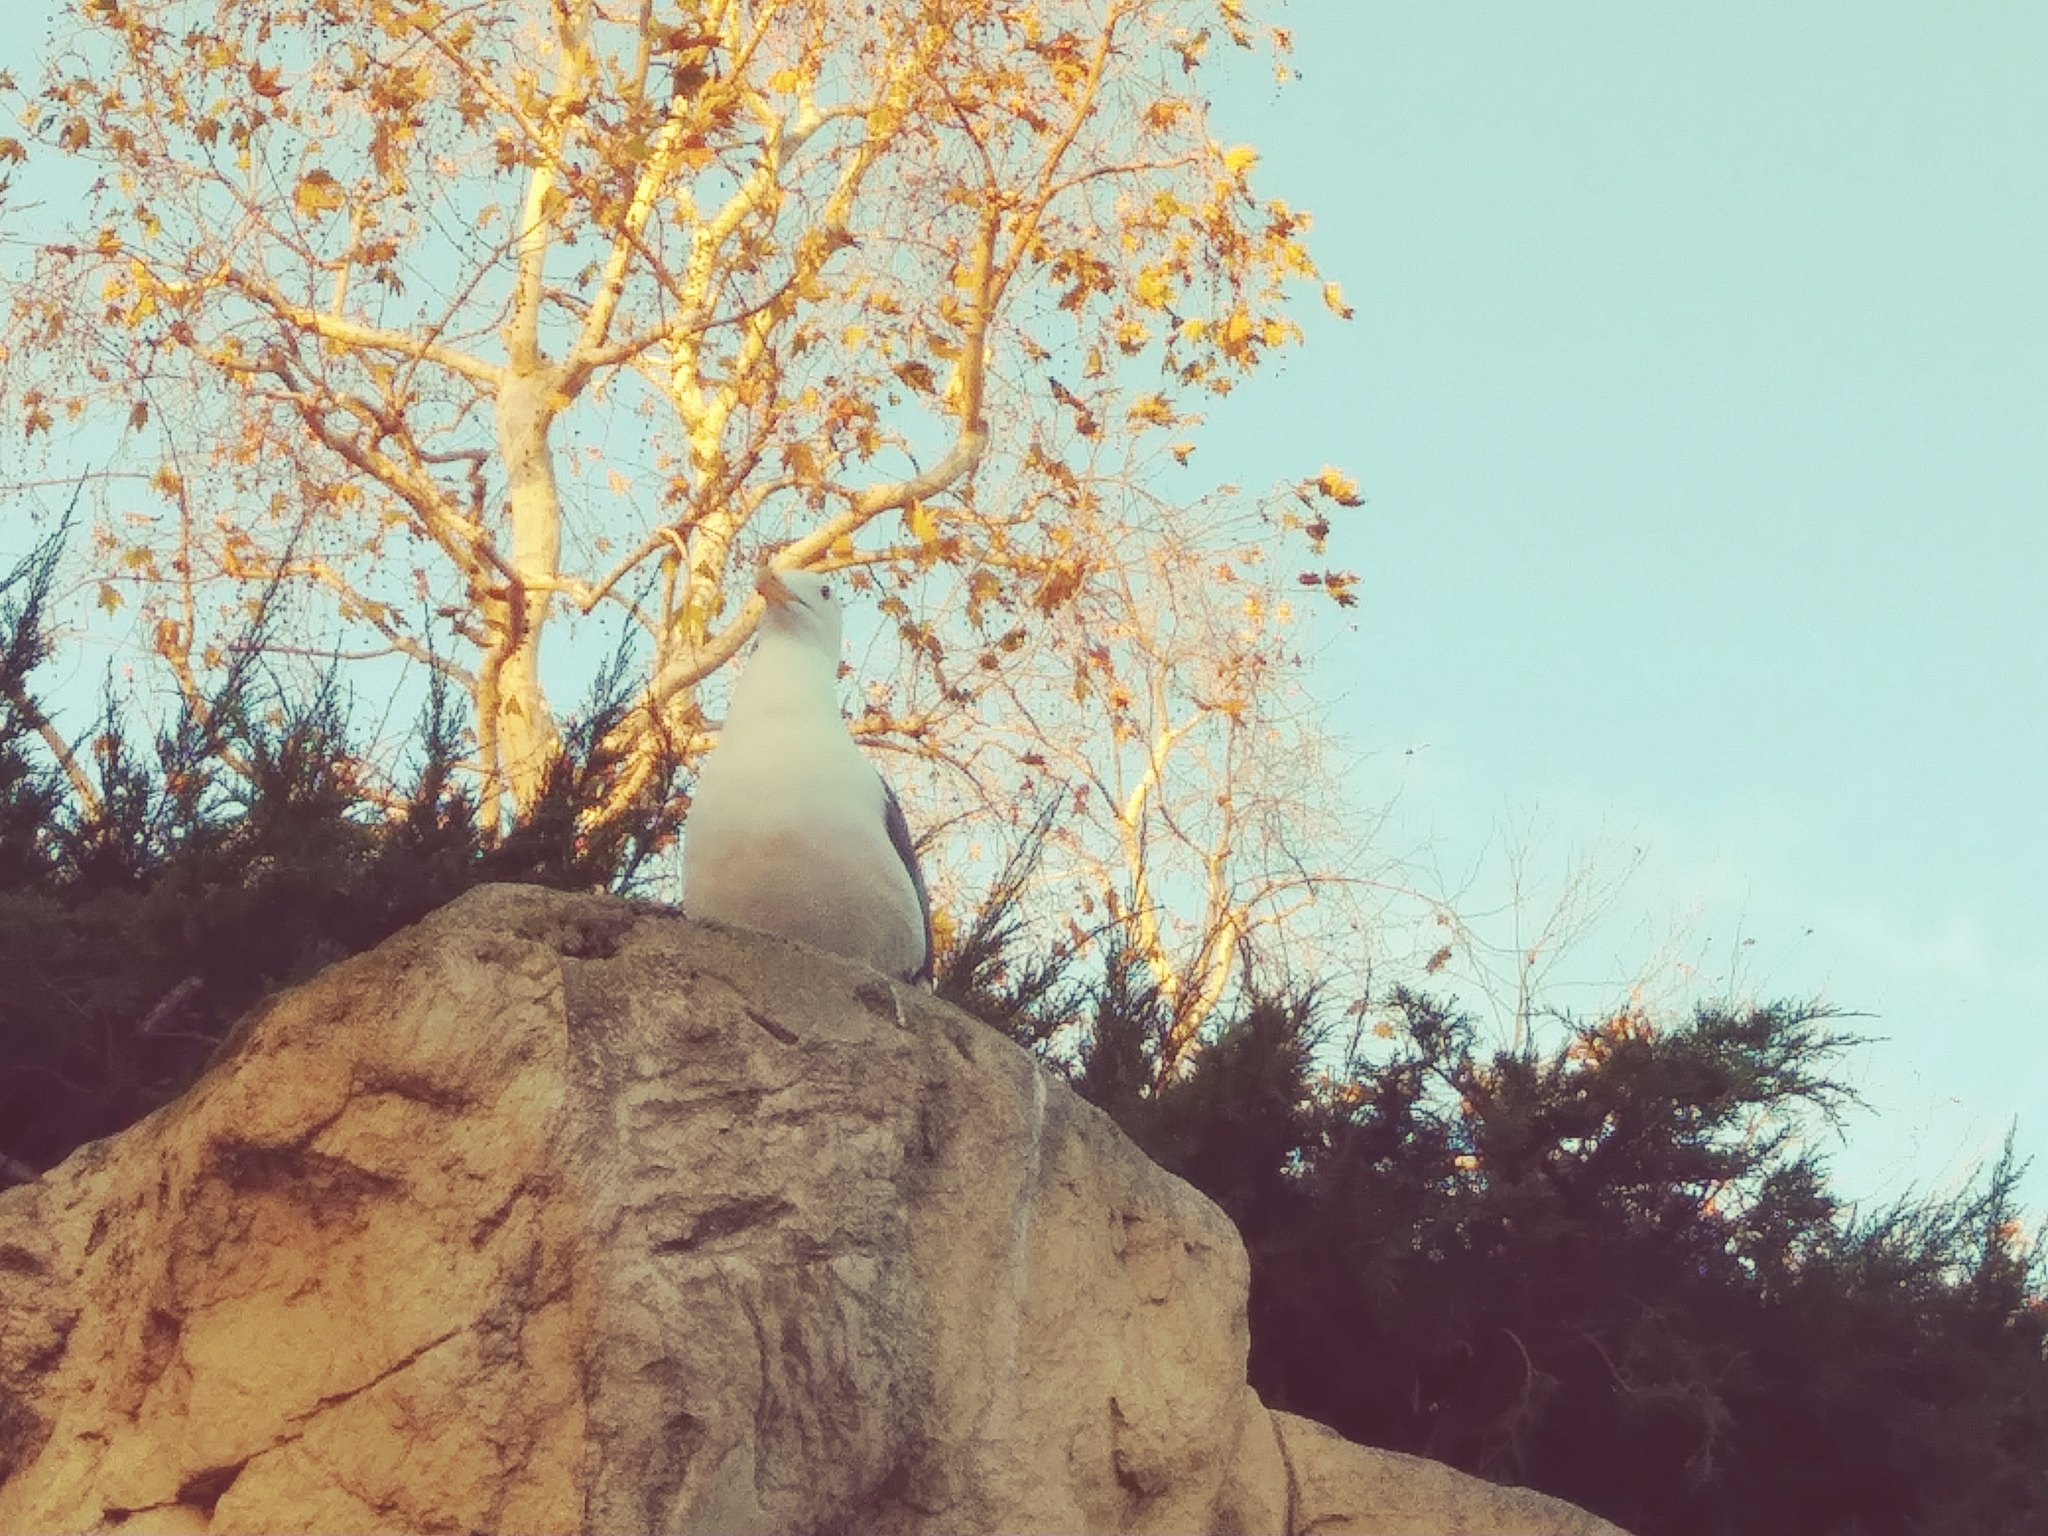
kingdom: Animalia
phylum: Chordata
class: Aves
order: Charadriiformes
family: Laridae
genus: Larus
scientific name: Larus occidentalis
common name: Western gull
